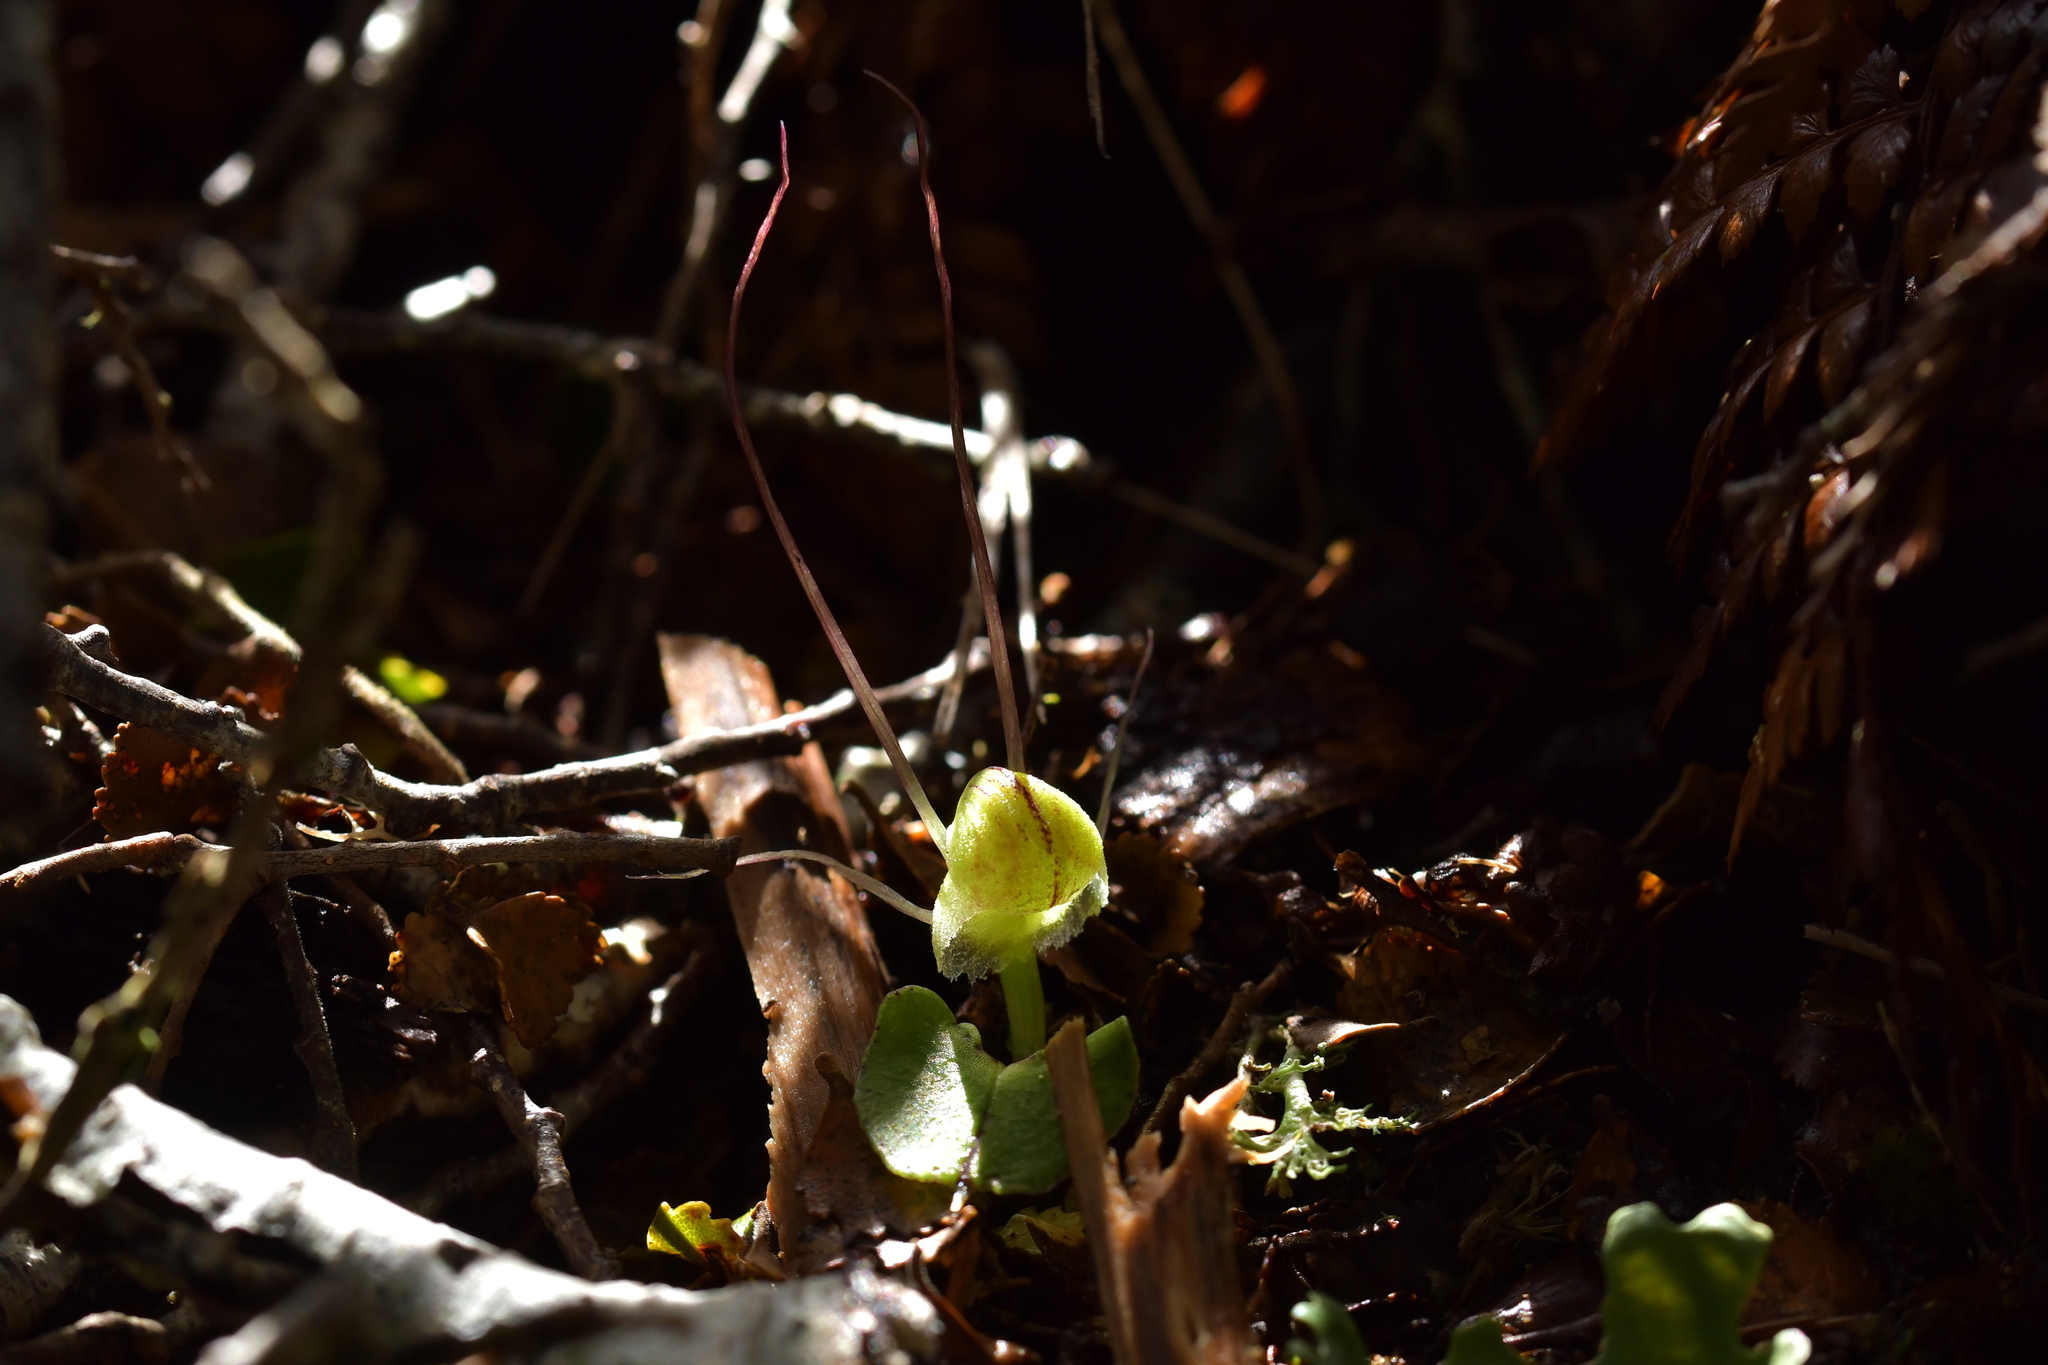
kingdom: Plantae
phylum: Tracheophyta
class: Liliopsida
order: Asparagales
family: Orchidaceae
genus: Corybas
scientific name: Corybas walliae
